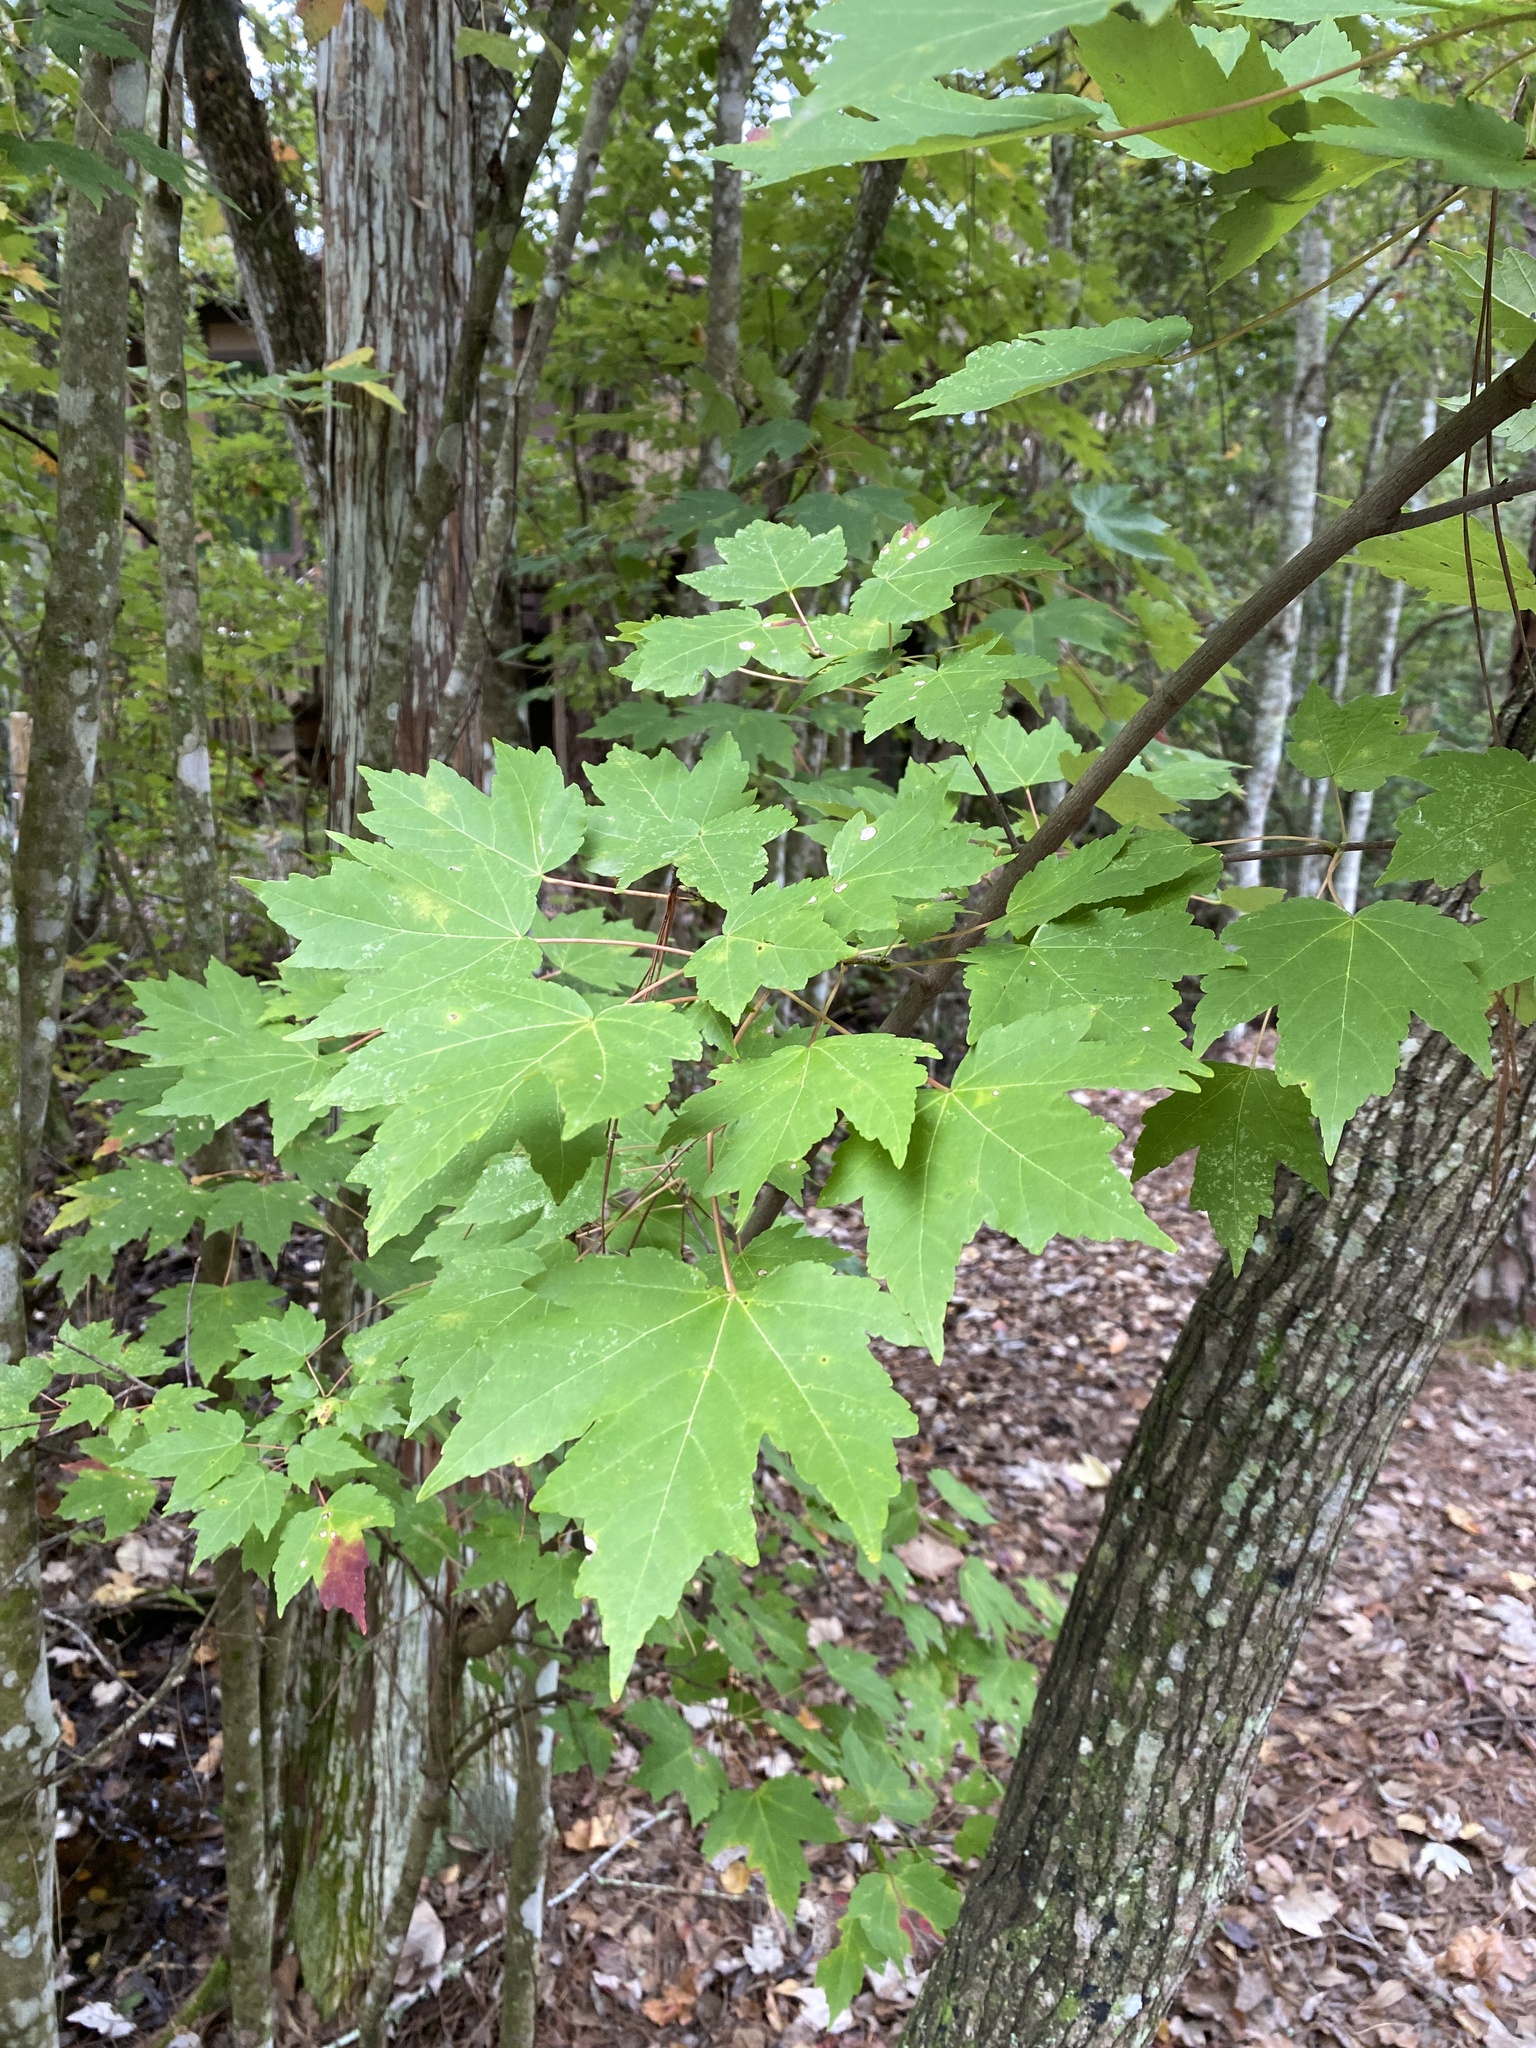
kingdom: Plantae
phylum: Tracheophyta
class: Magnoliopsida
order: Sapindales
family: Sapindaceae
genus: Acer
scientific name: Acer rubrum
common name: Red maple
